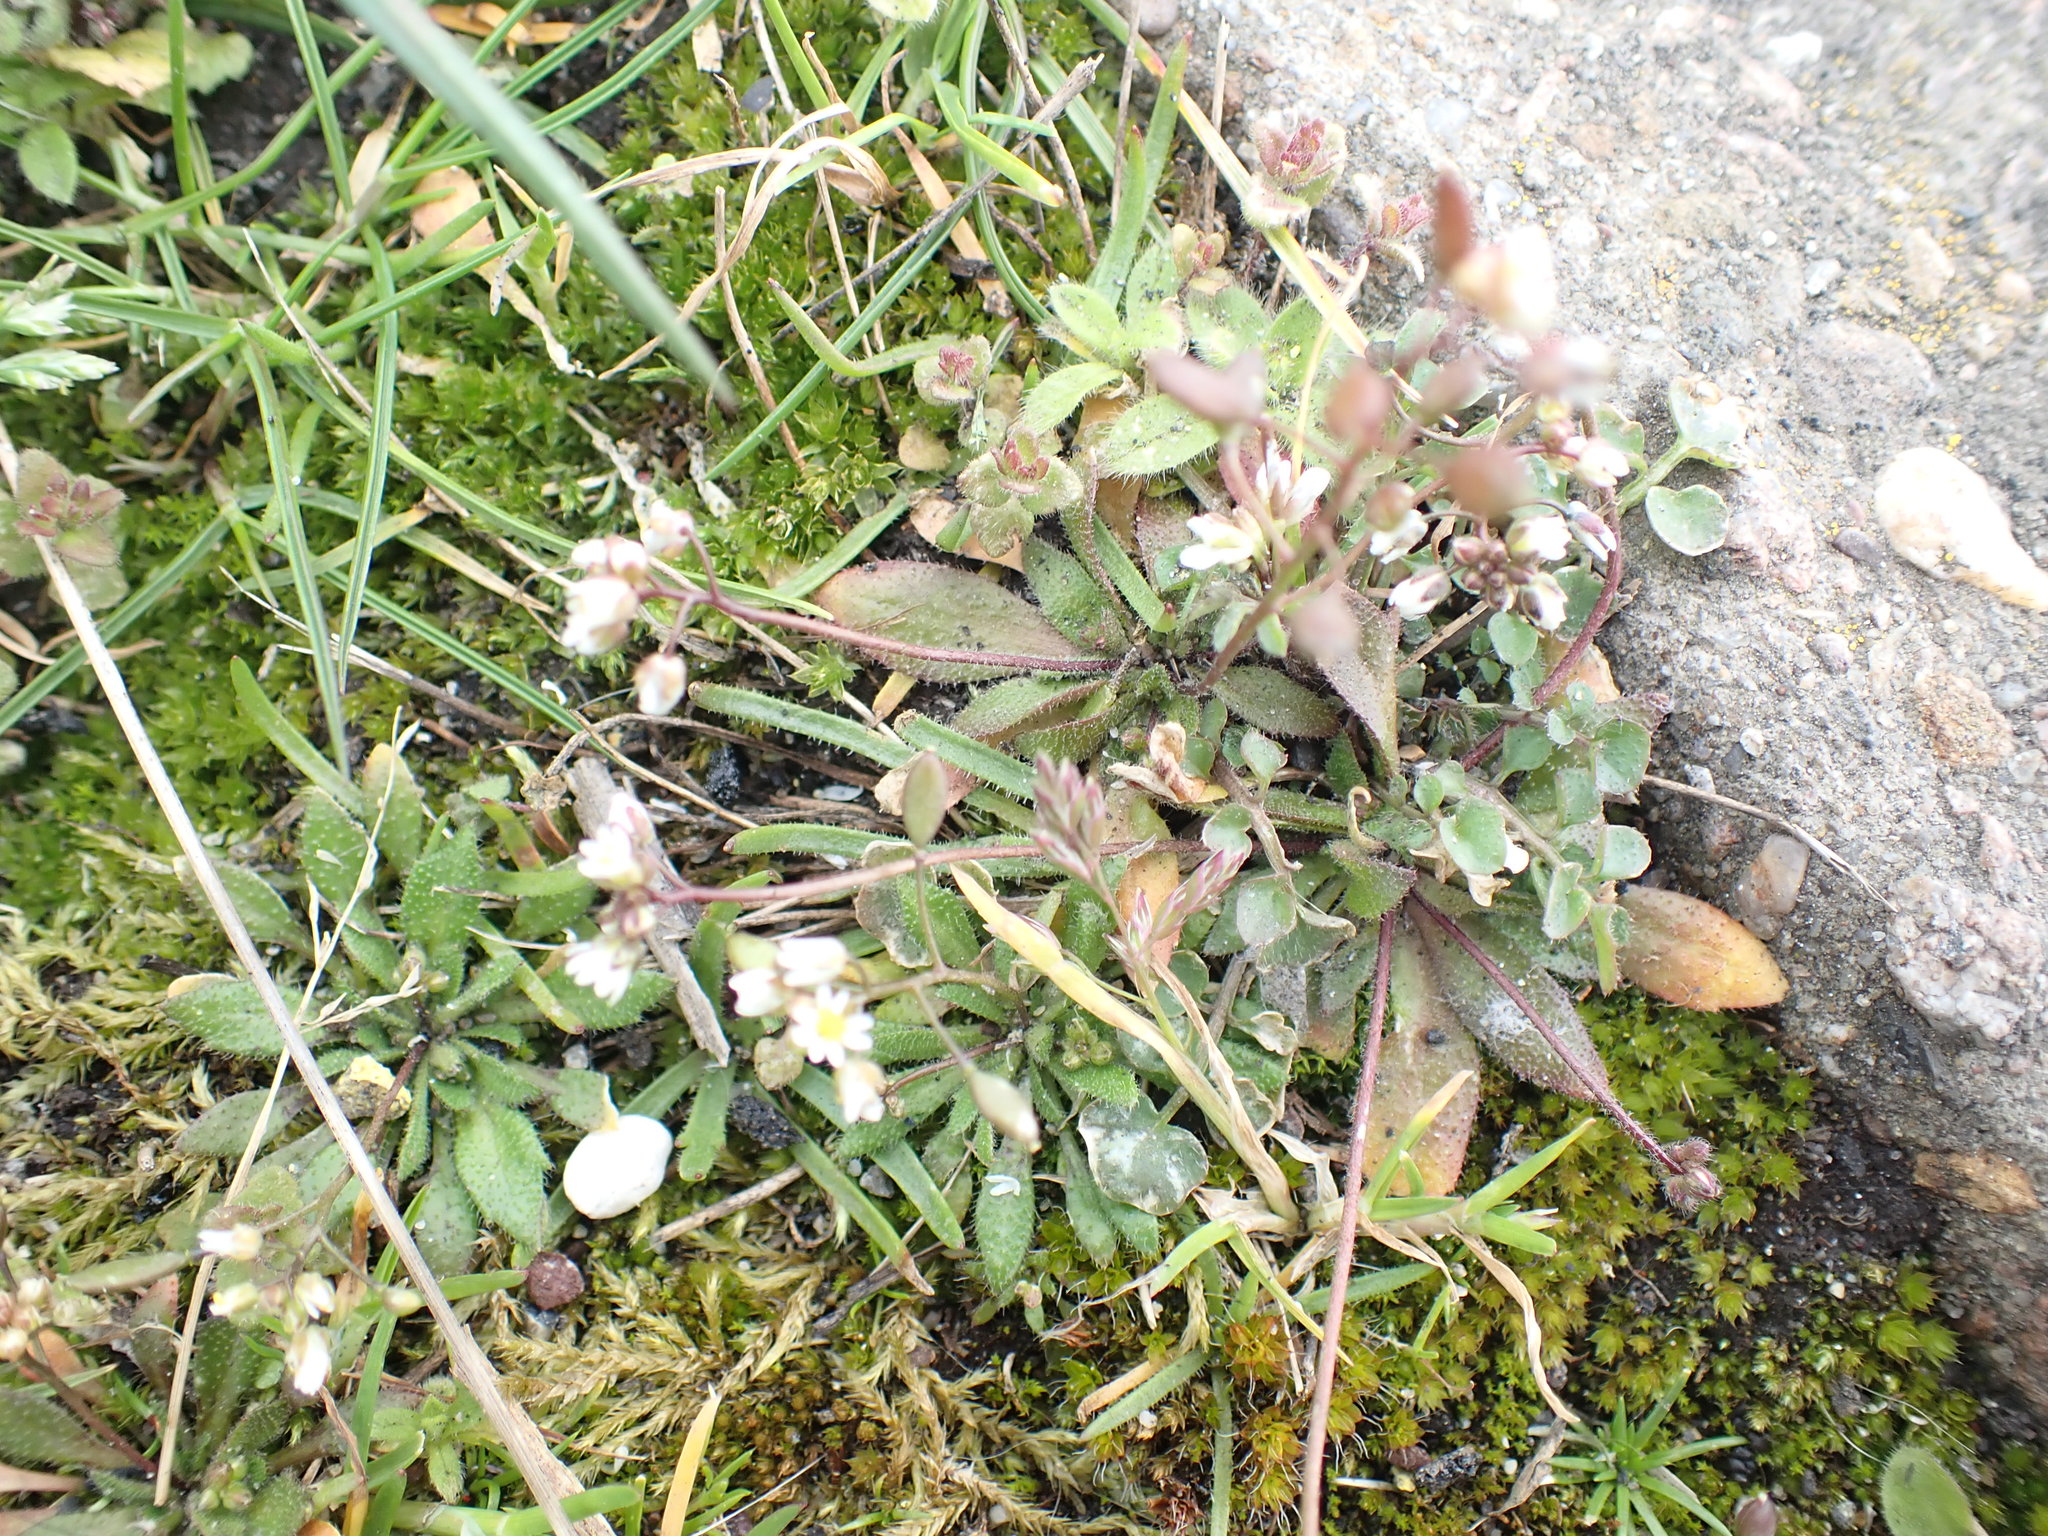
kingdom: Plantae
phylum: Tracheophyta
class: Magnoliopsida
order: Brassicales
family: Brassicaceae
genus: Draba
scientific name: Draba verna
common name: Spring draba
